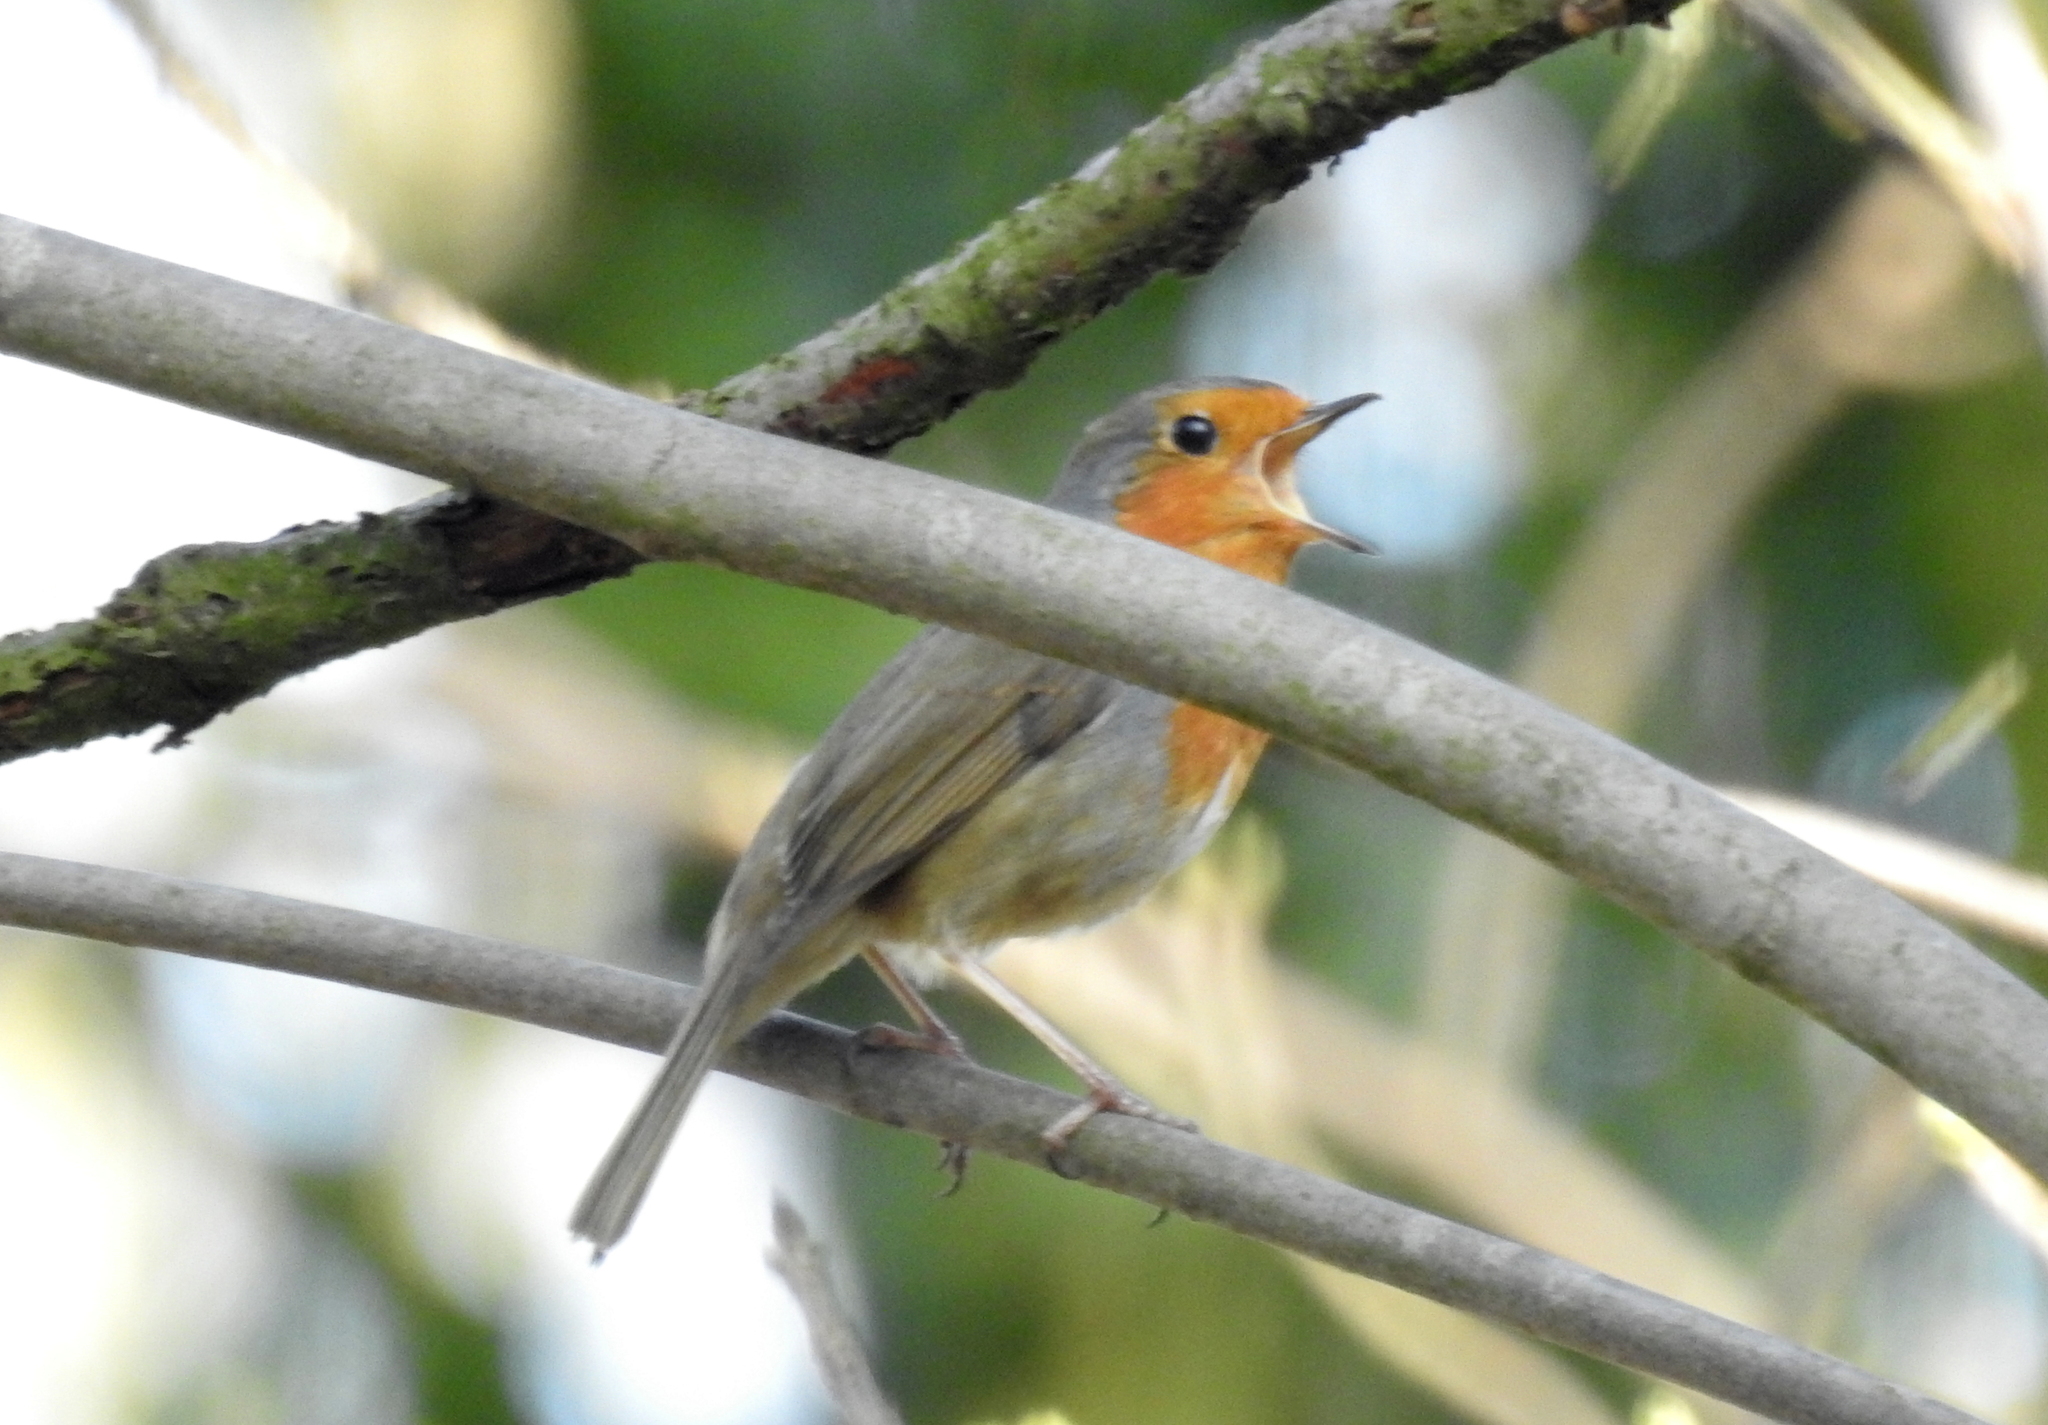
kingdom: Animalia
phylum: Chordata
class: Aves
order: Passeriformes
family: Muscicapidae
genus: Erithacus
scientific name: Erithacus rubecula
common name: European robin
